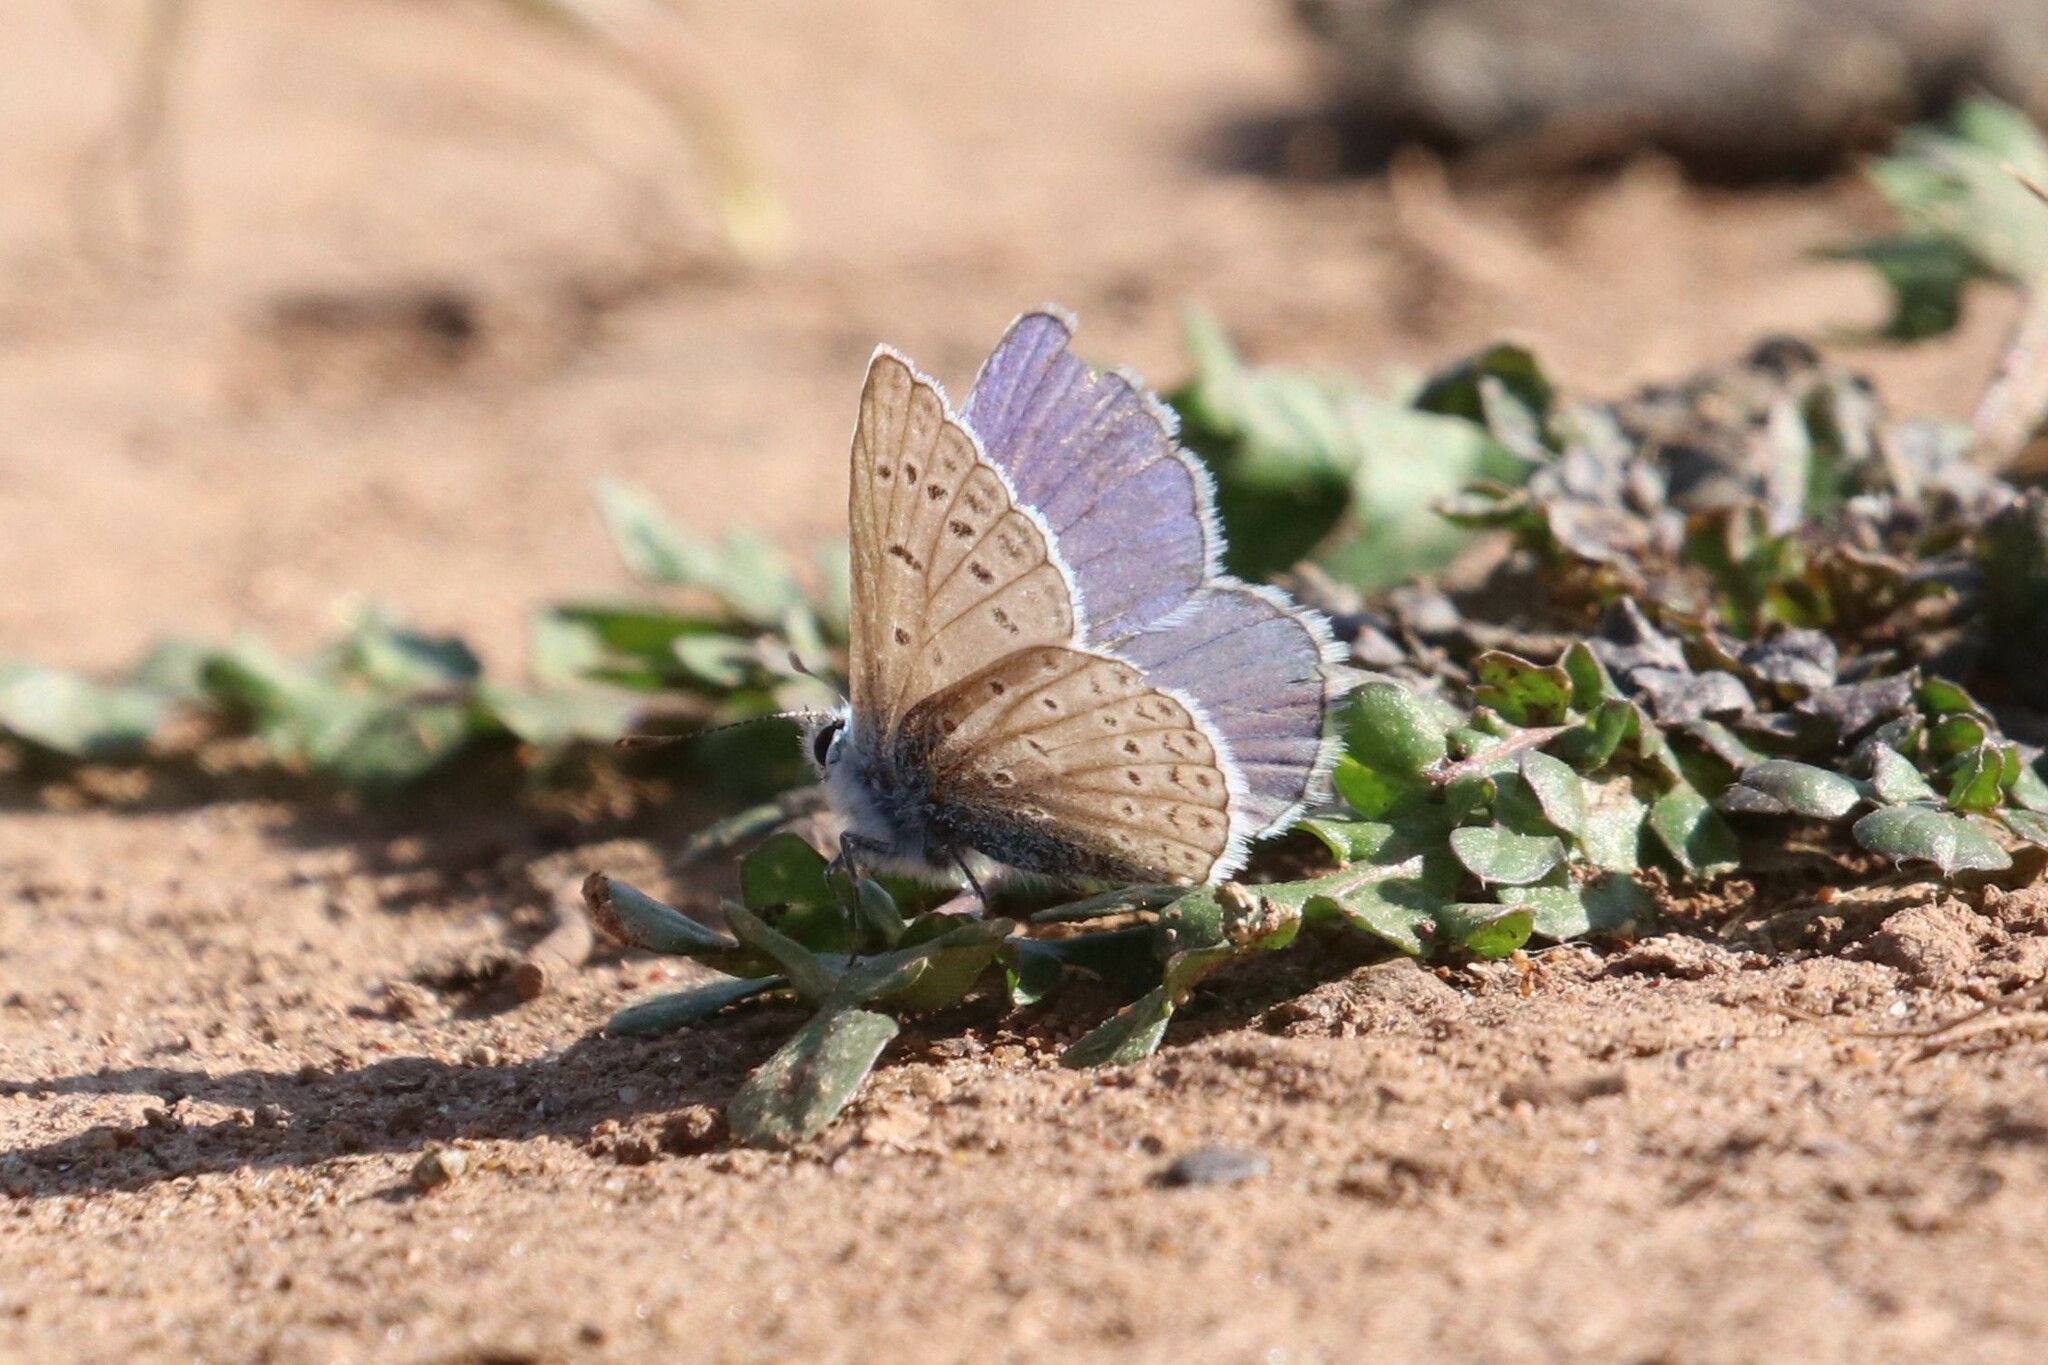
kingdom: Animalia
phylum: Arthropoda
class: Insecta
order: Lepidoptera
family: Lycaenidae
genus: Polyommatus
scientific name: Polyommatus icarus
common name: Common blue
